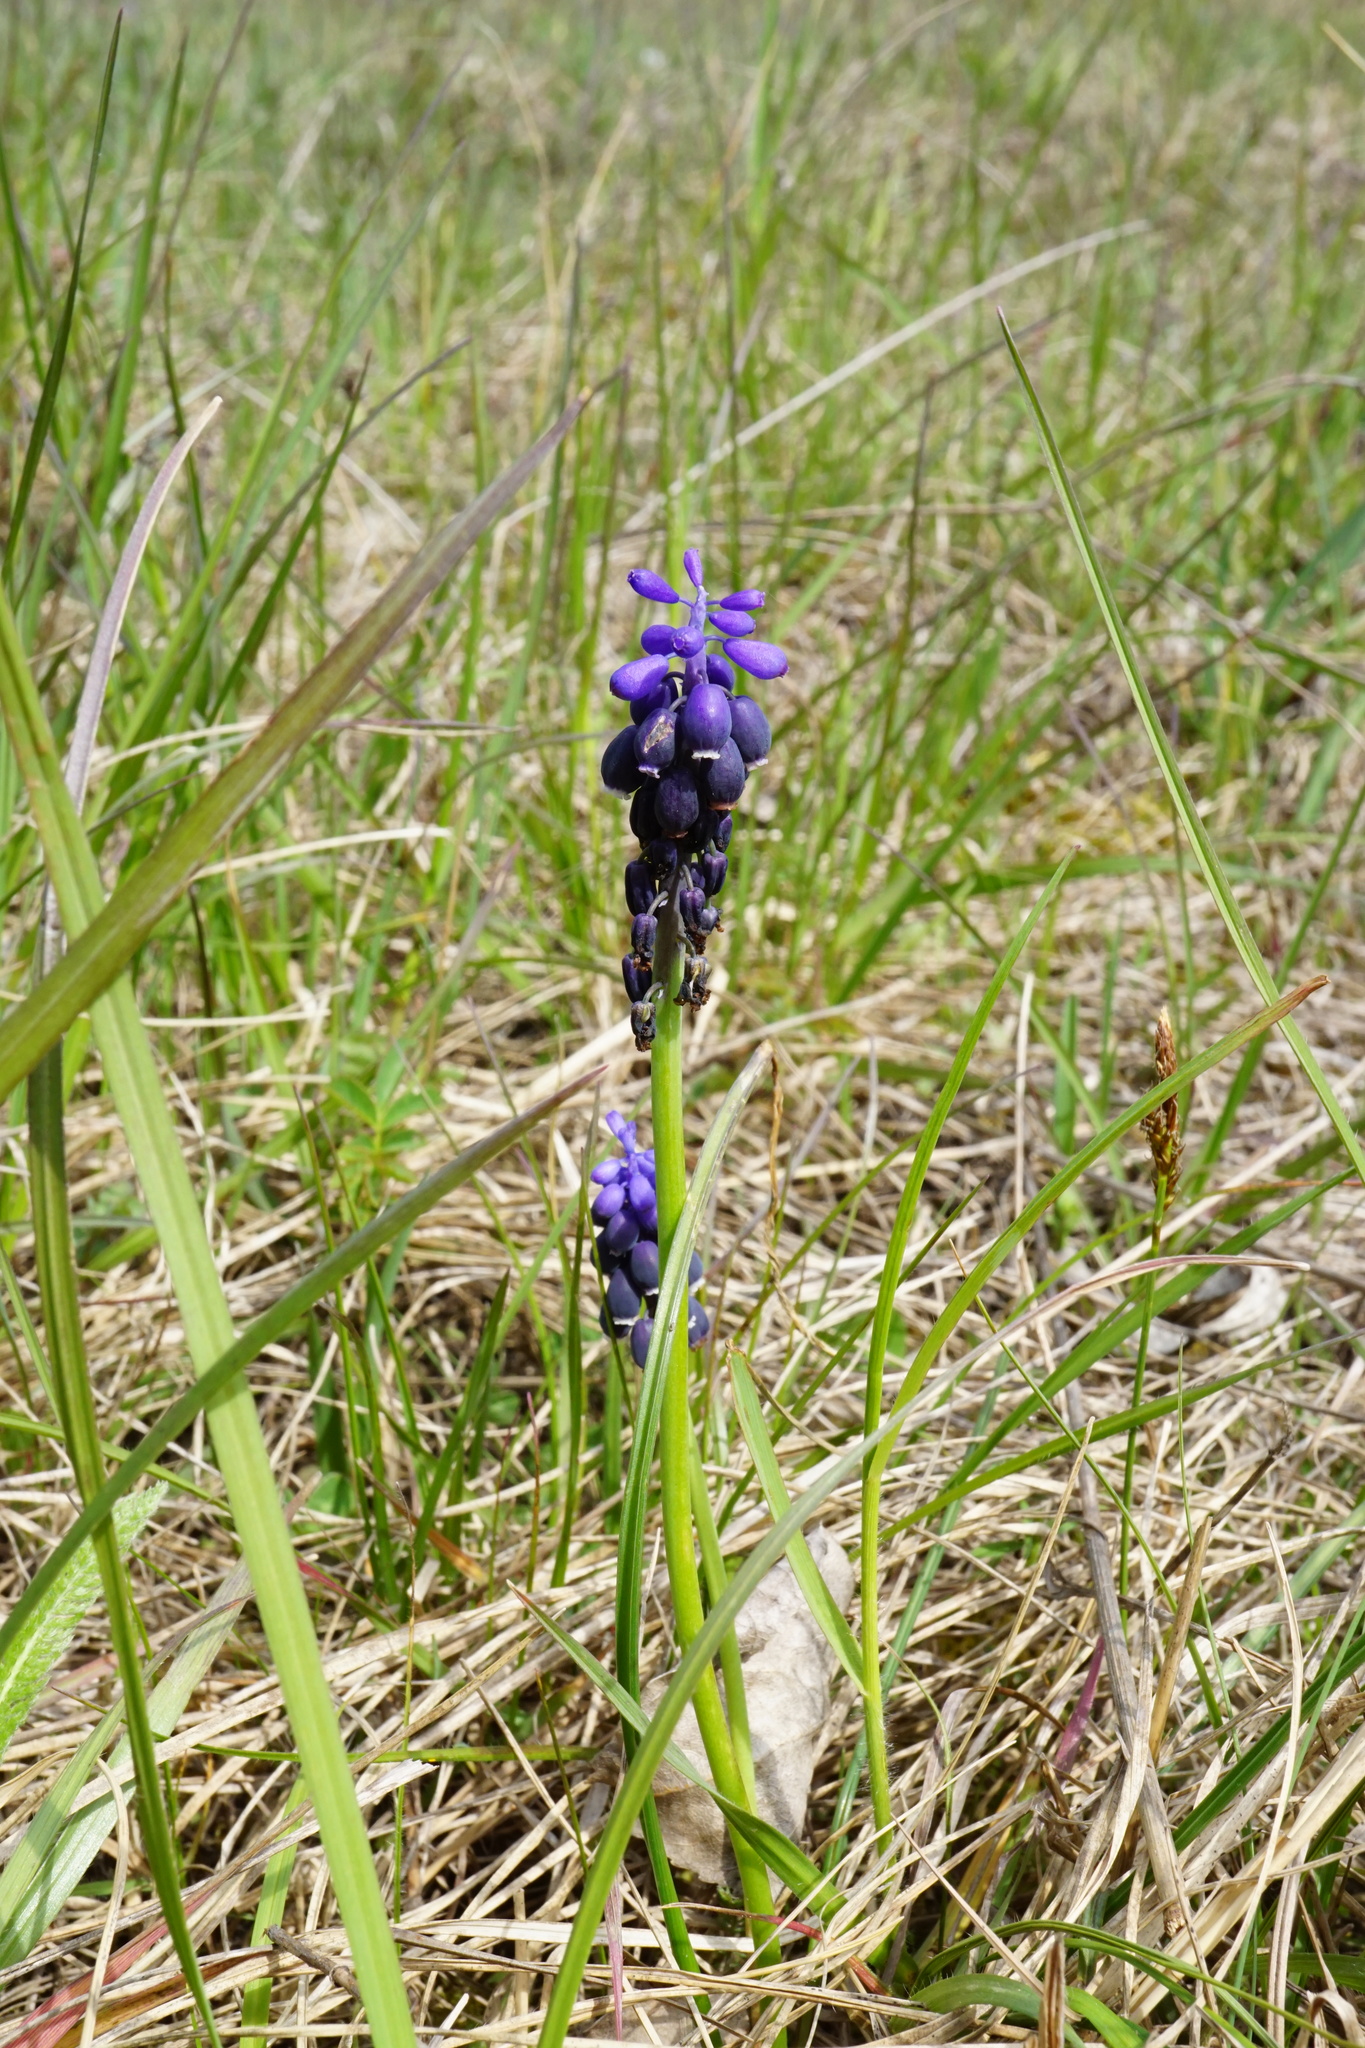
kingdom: Plantae
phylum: Tracheophyta
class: Liliopsida
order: Asparagales
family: Asparagaceae
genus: Muscari
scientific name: Muscari neglectum
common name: Grape-hyacinth
